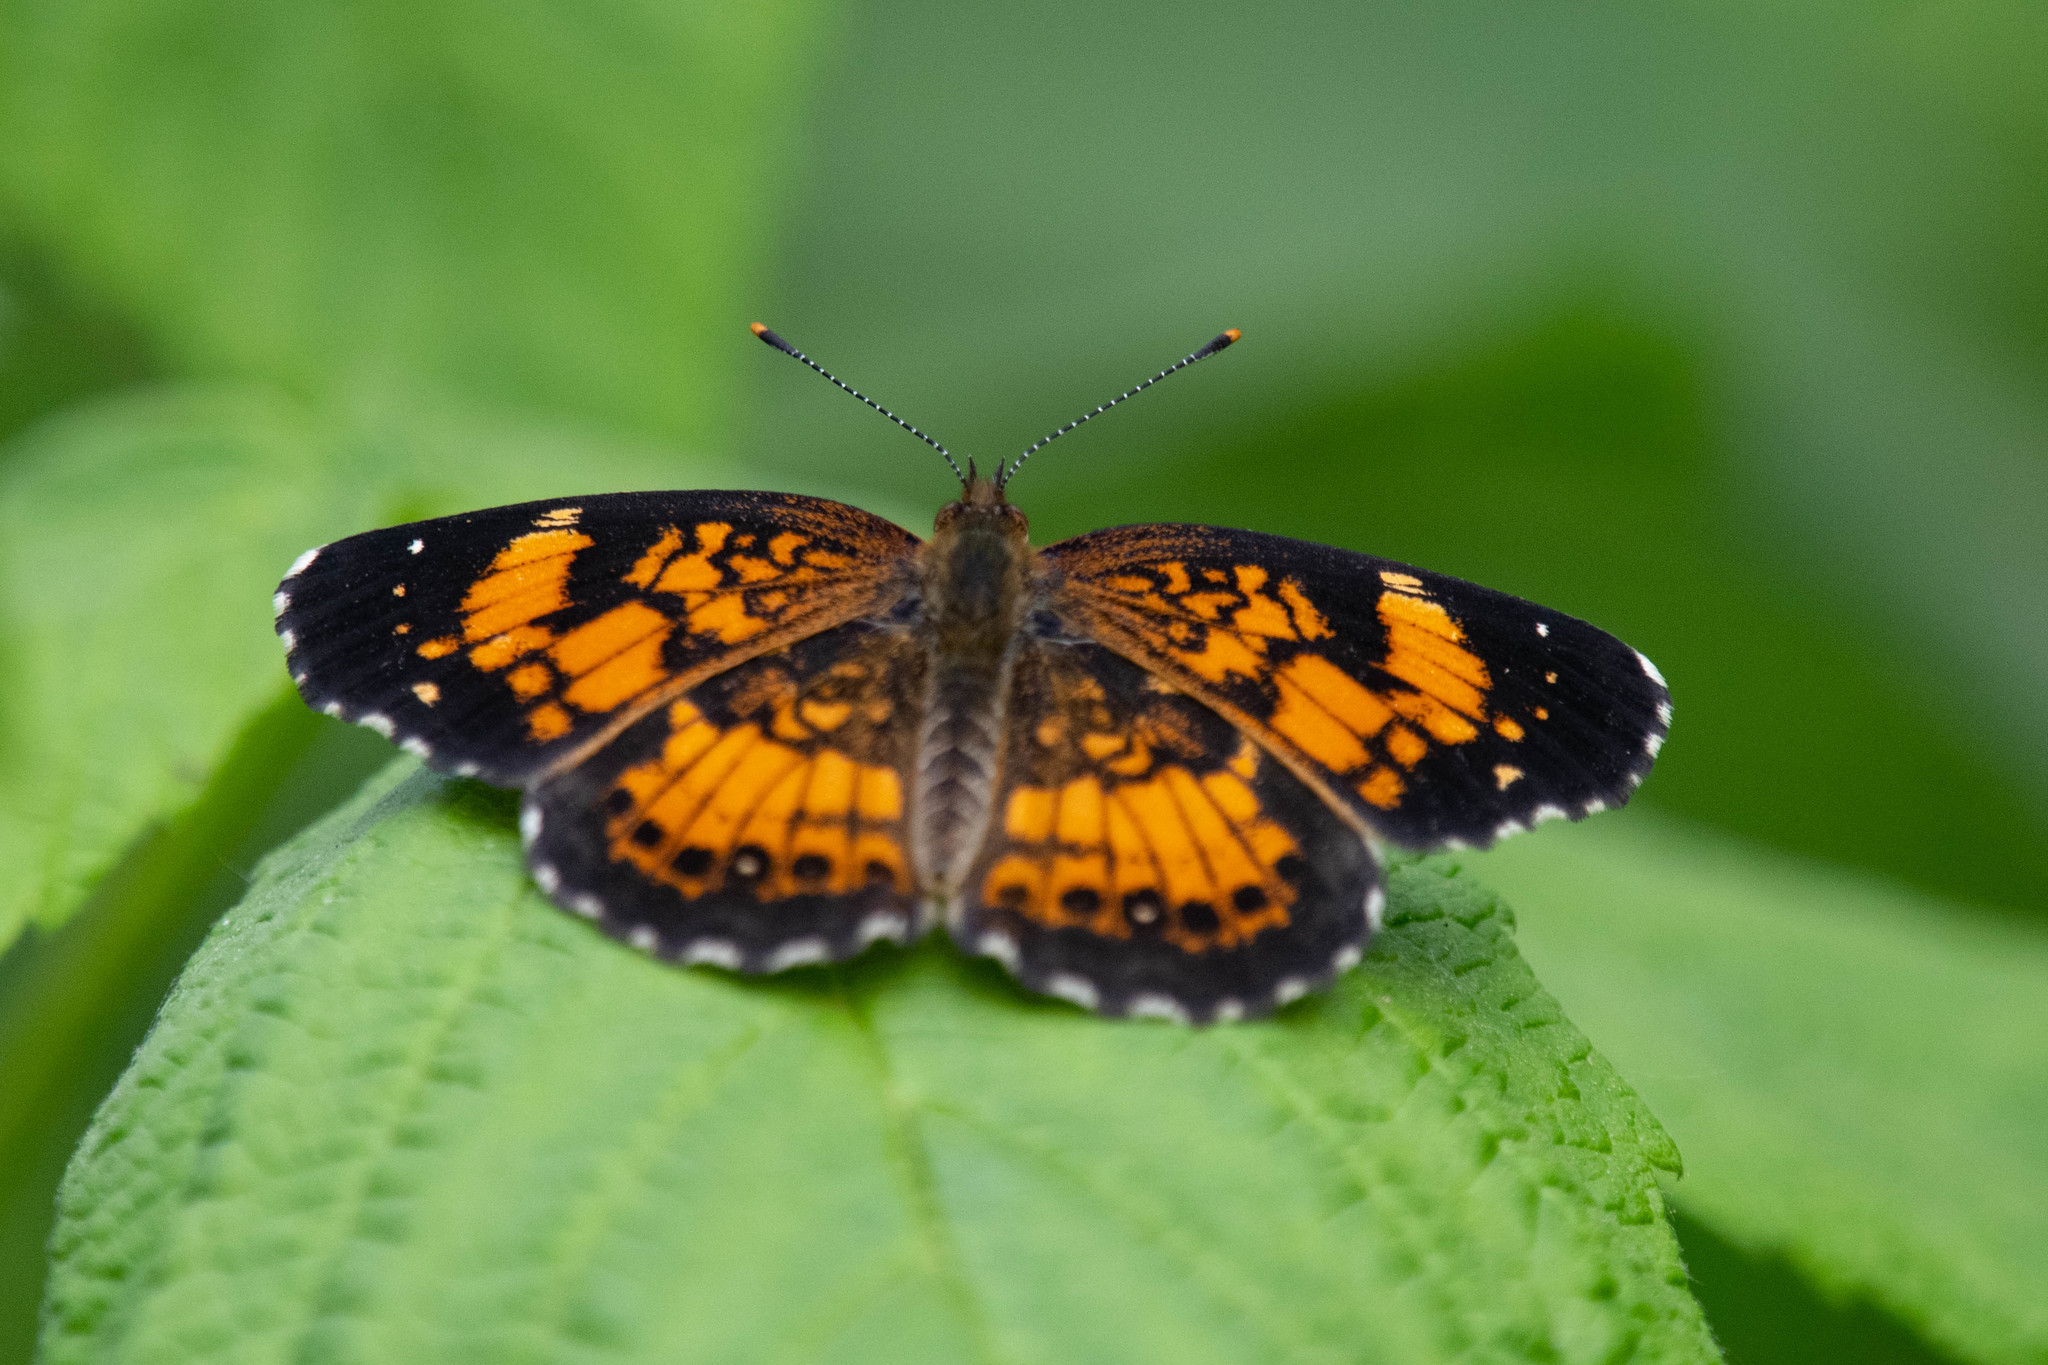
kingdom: Animalia
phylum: Arthropoda
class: Insecta
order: Lepidoptera
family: Nymphalidae
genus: Chlosyne
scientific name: Chlosyne nycteis
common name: Silvery checkerspot
